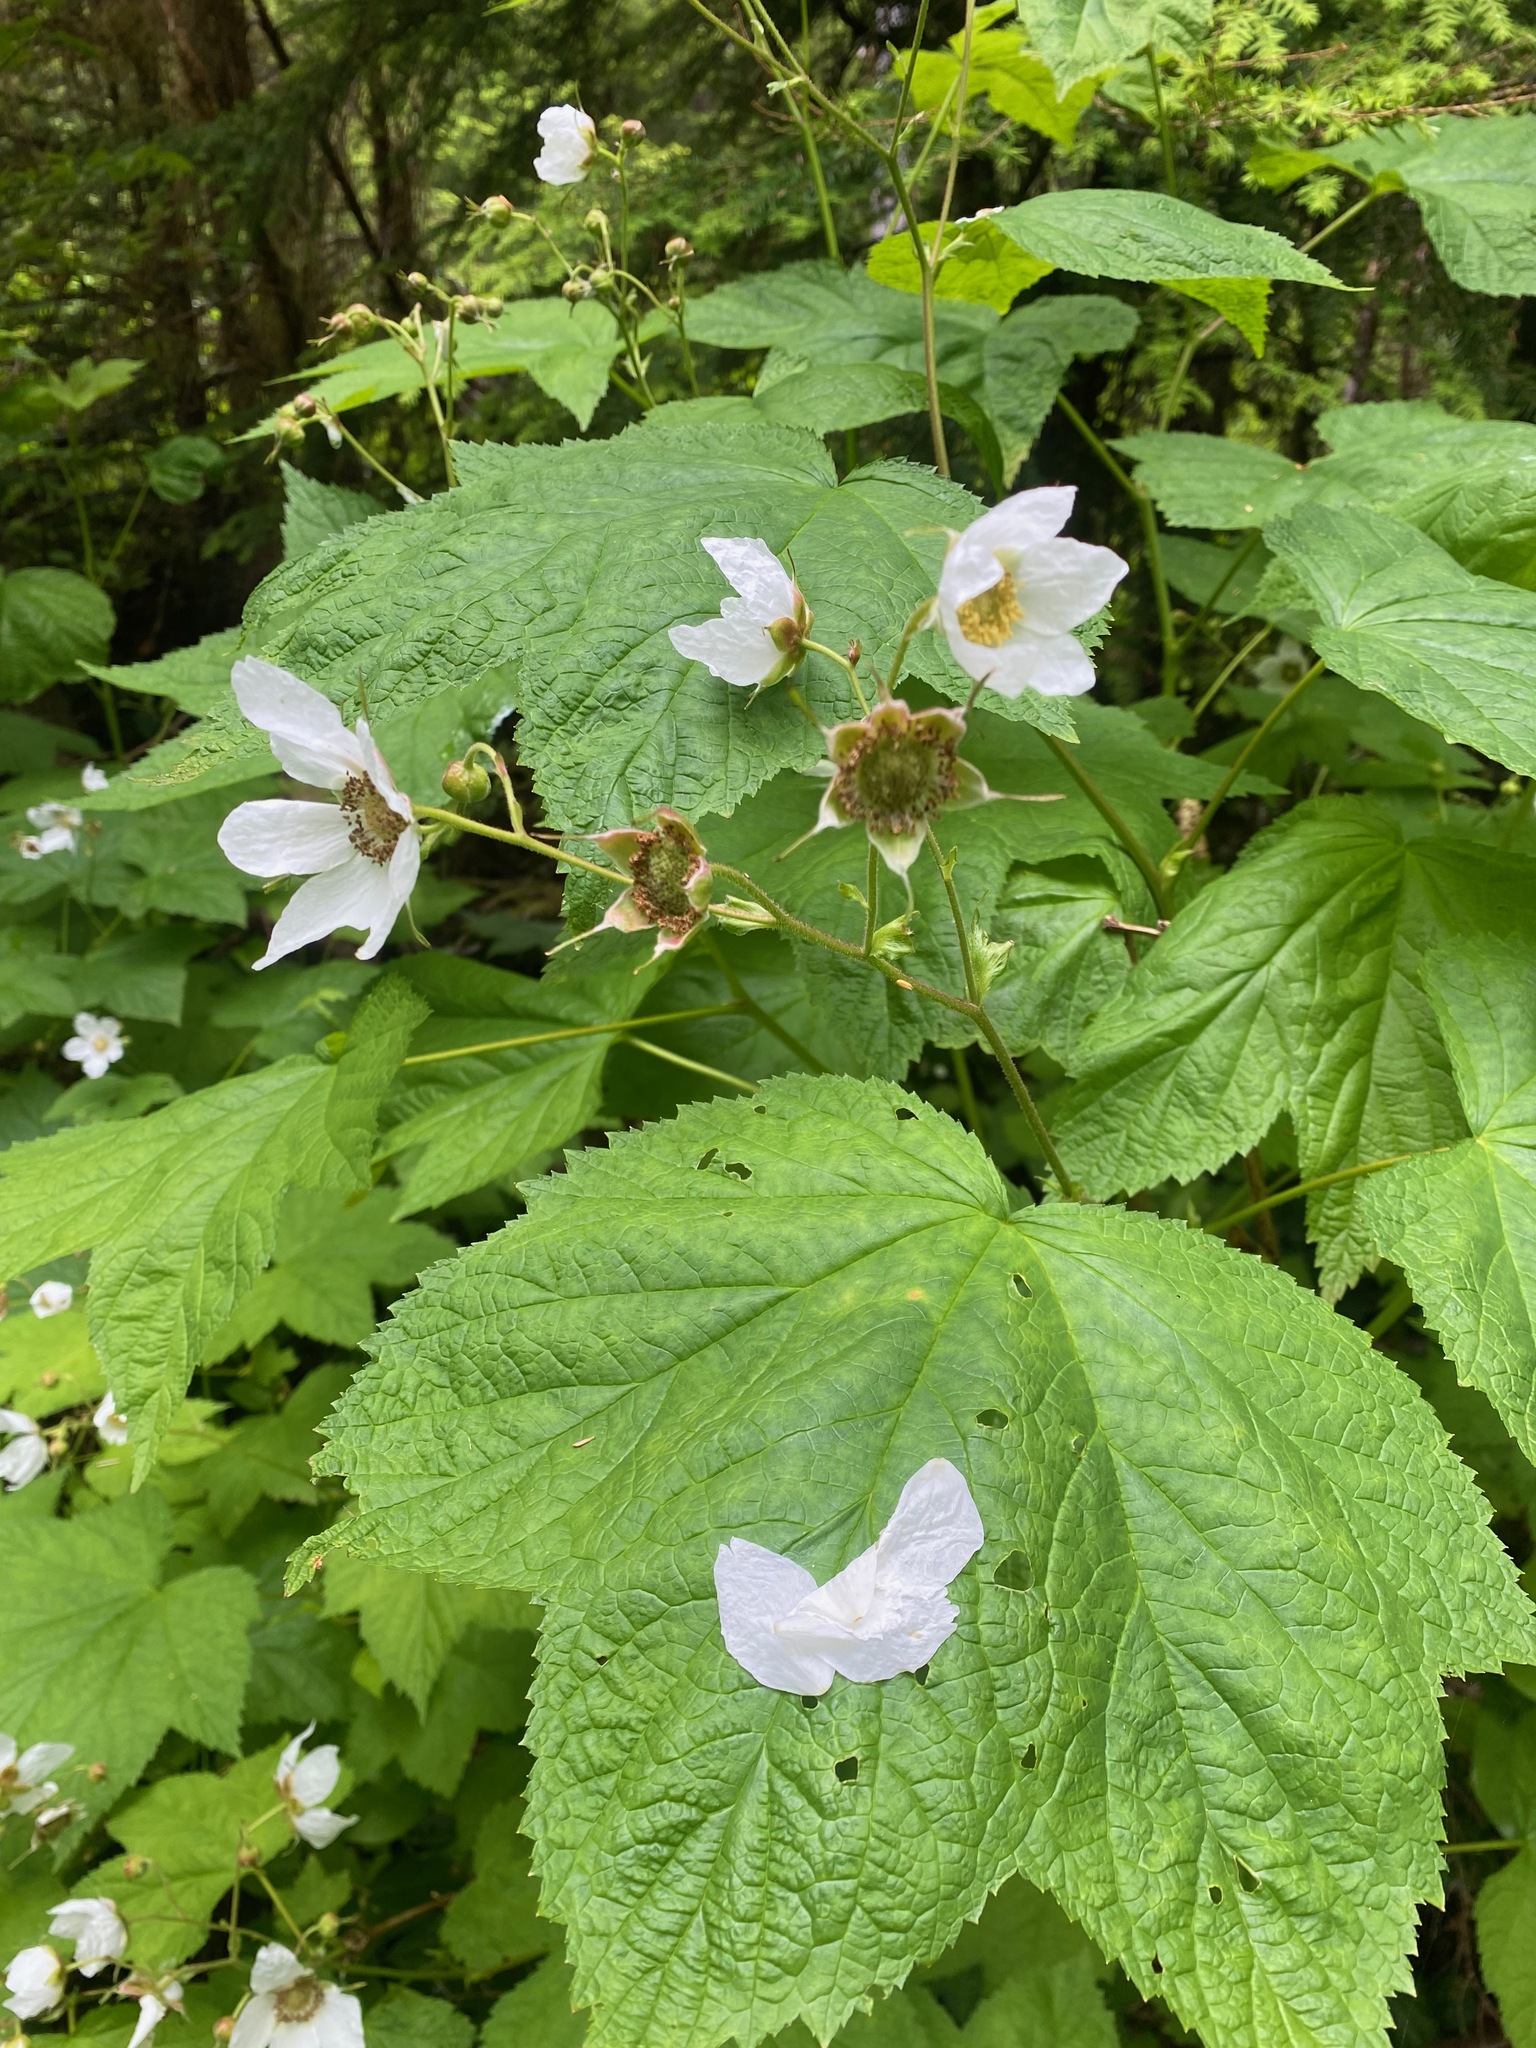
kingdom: Plantae
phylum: Tracheophyta
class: Magnoliopsida
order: Rosales
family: Rosaceae
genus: Rubus
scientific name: Rubus parviflorus
